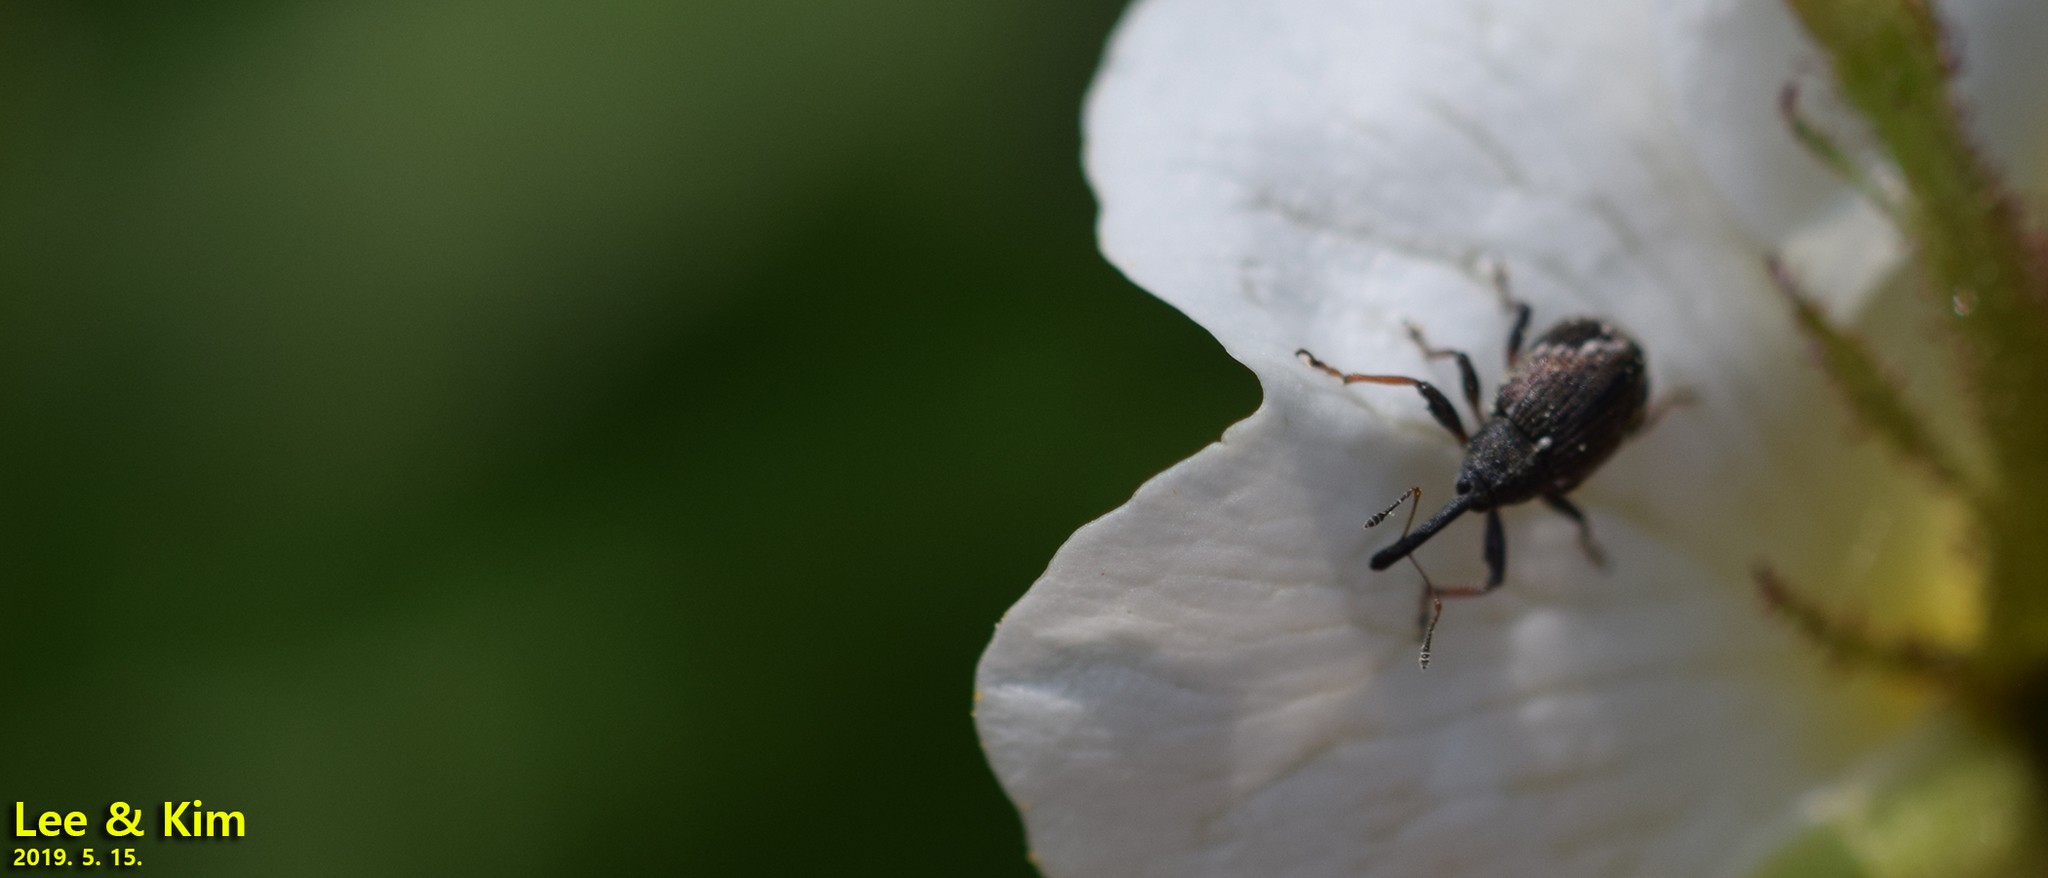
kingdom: Animalia
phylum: Arthropoda
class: Insecta
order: Coleoptera
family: Curculionidae
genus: Anthonomus
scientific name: Anthonomus bisignifer
